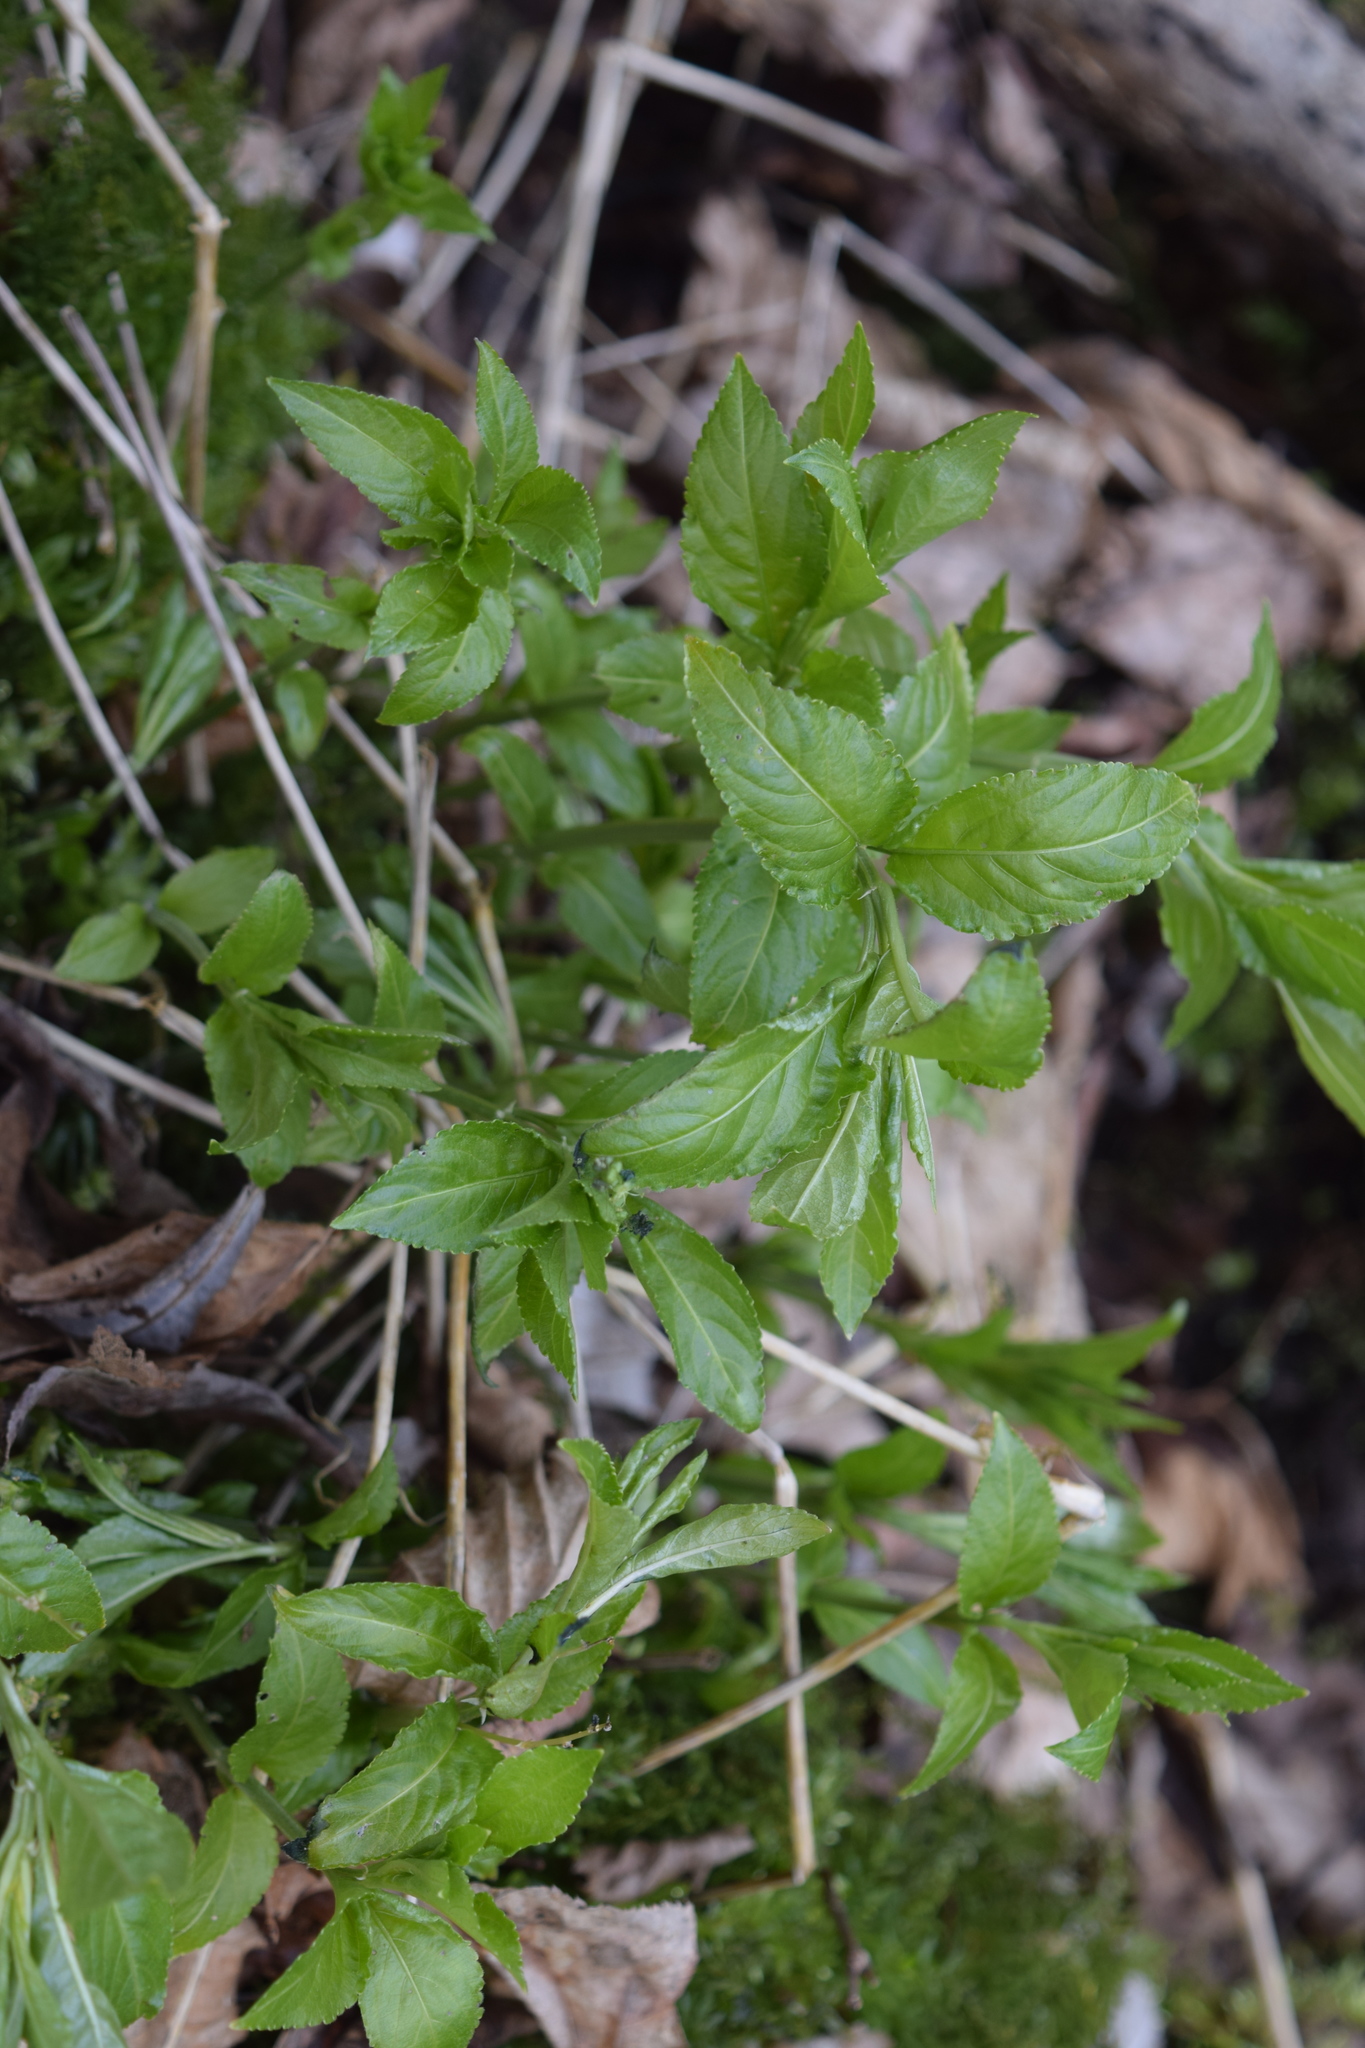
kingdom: Plantae
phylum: Tracheophyta
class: Magnoliopsida
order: Malpighiales
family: Euphorbiaceae
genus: Mercurialis
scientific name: Mercurialis perennis
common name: Dog mercury
